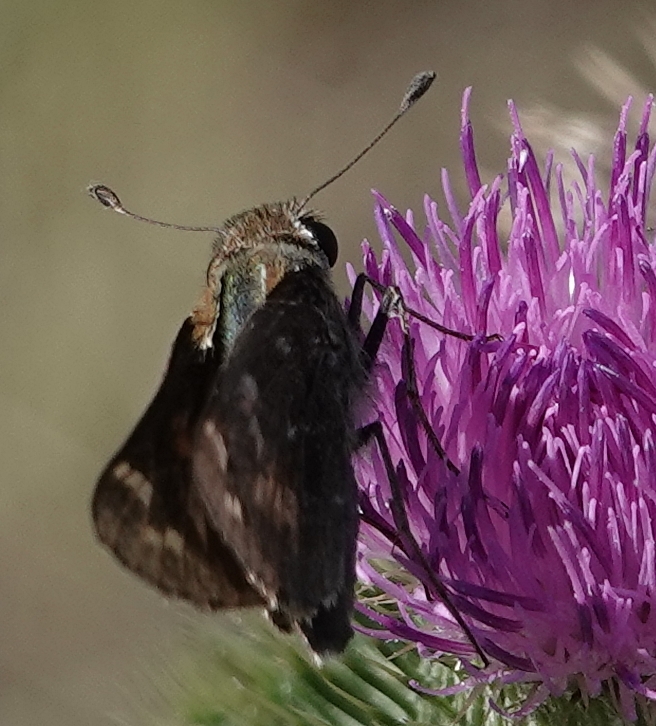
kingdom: Animalia
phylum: Arthropoda
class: Insecta
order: Lepidoptera
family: Hesperiidae
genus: Atalopedes
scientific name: Atalopedes
